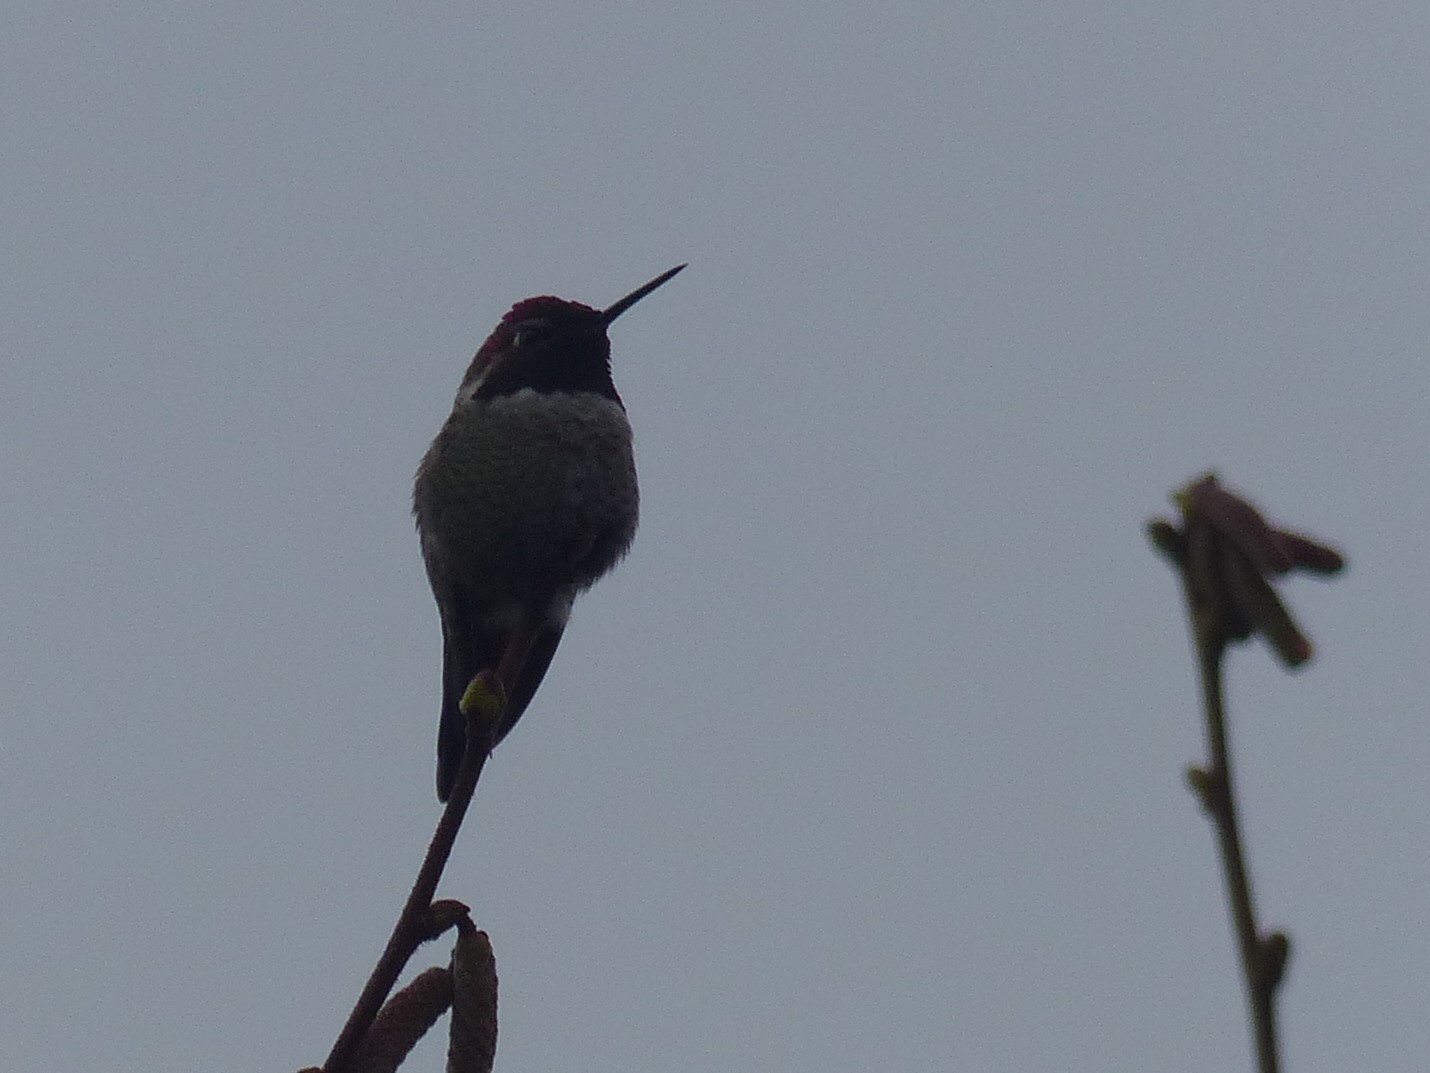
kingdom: Animalia
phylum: Chordata
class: Aves
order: Apodiformes
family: Trochilidae
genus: Calypte
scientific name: Calypte anna
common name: Anna's hummingbird
